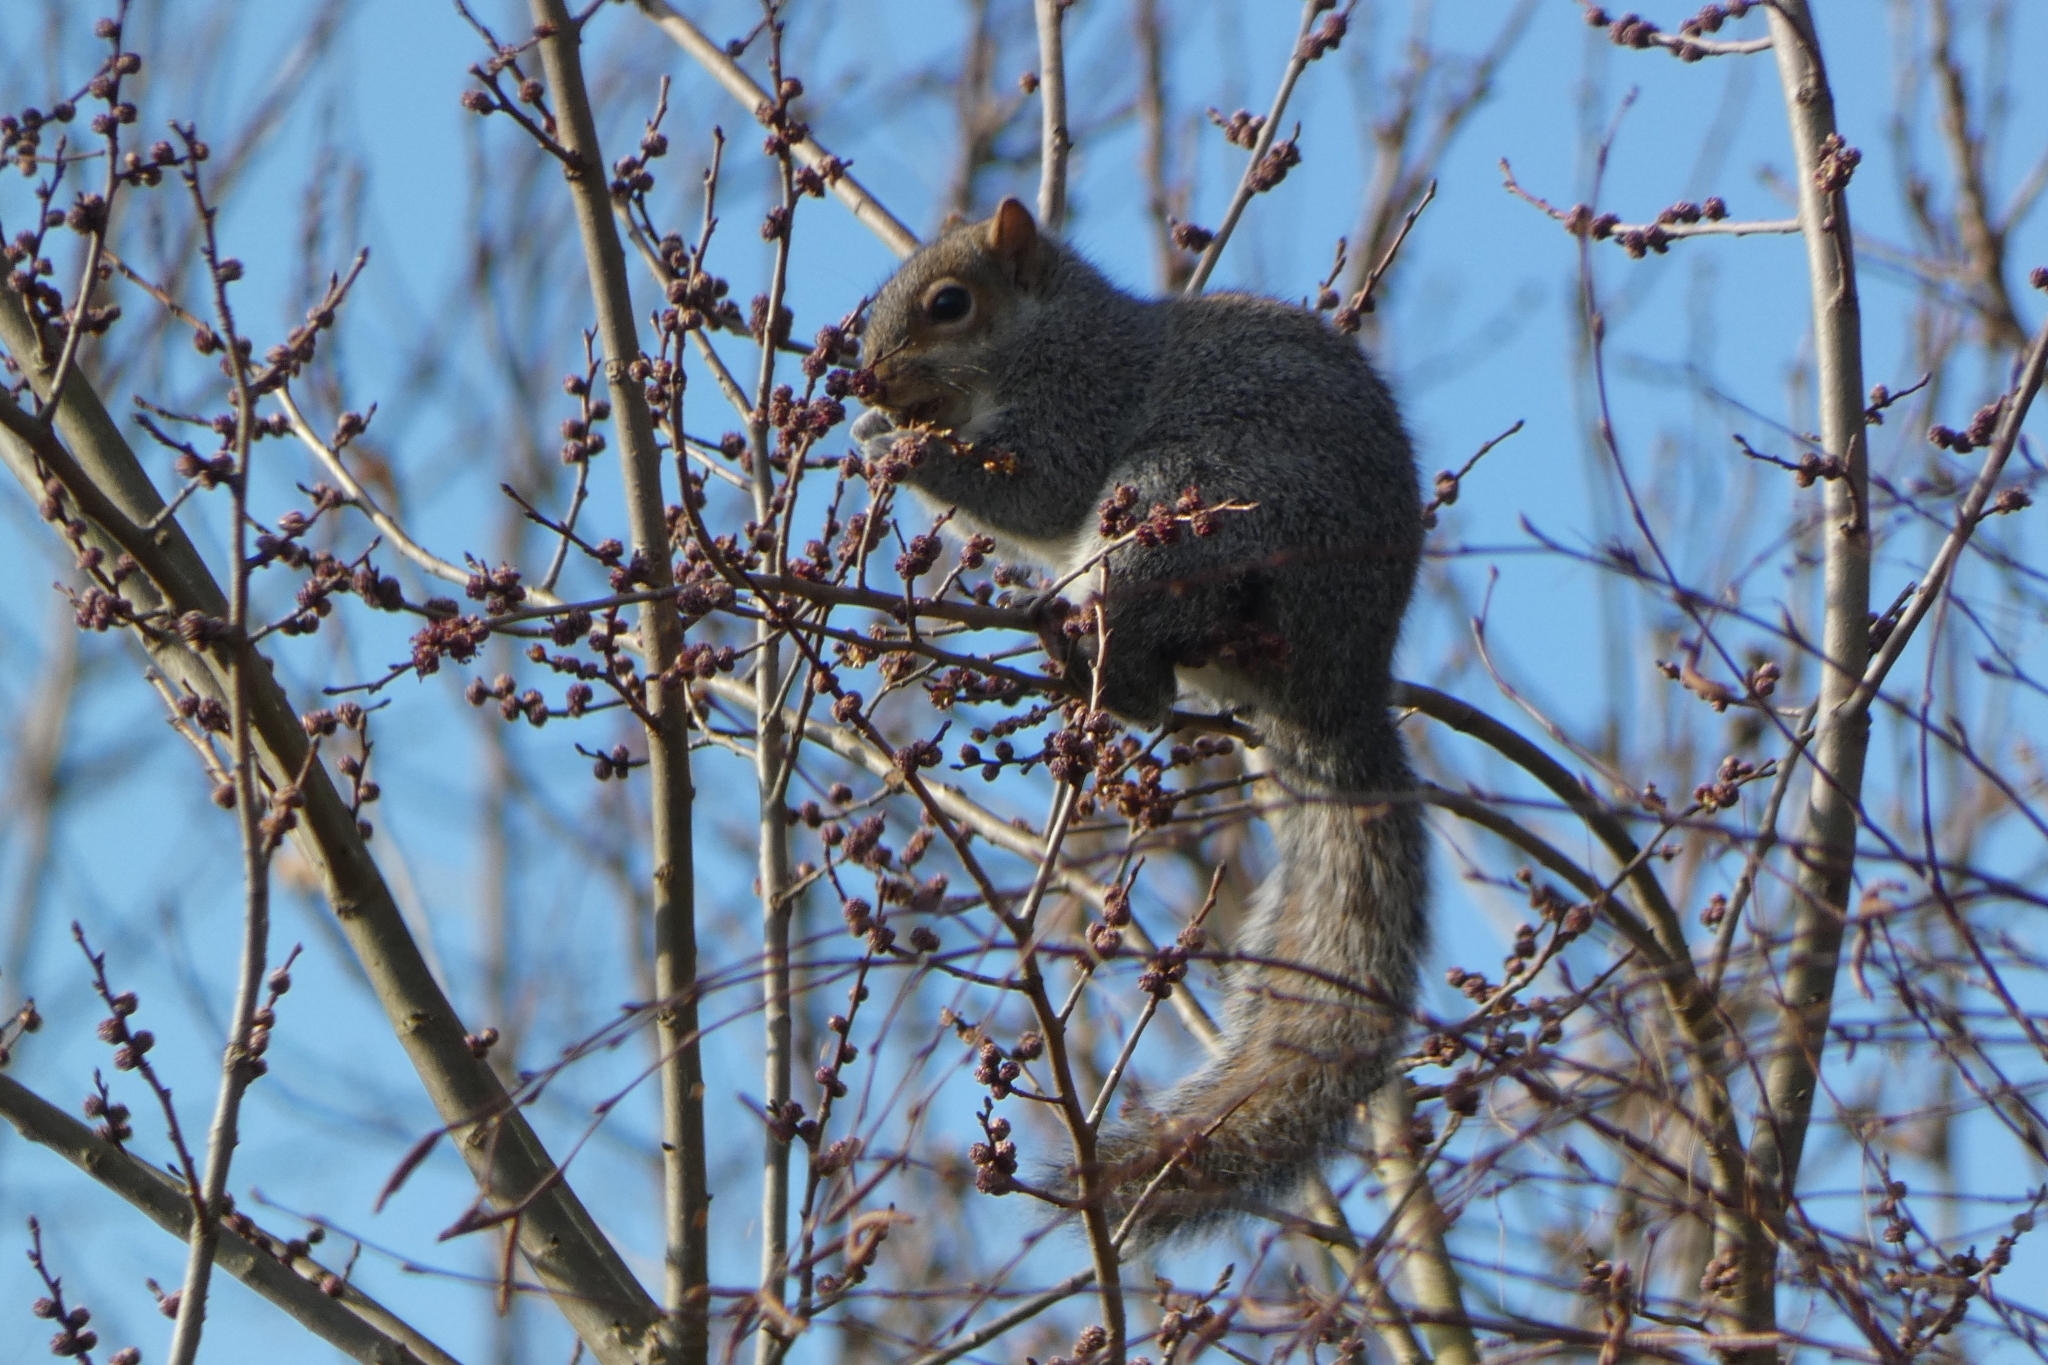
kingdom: Animalia
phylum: Chordata
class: Mammalia
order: Rodentia
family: Sciuridae
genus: Sciurus
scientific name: Sciurus carolinensis
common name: Eastern gray squirrel
